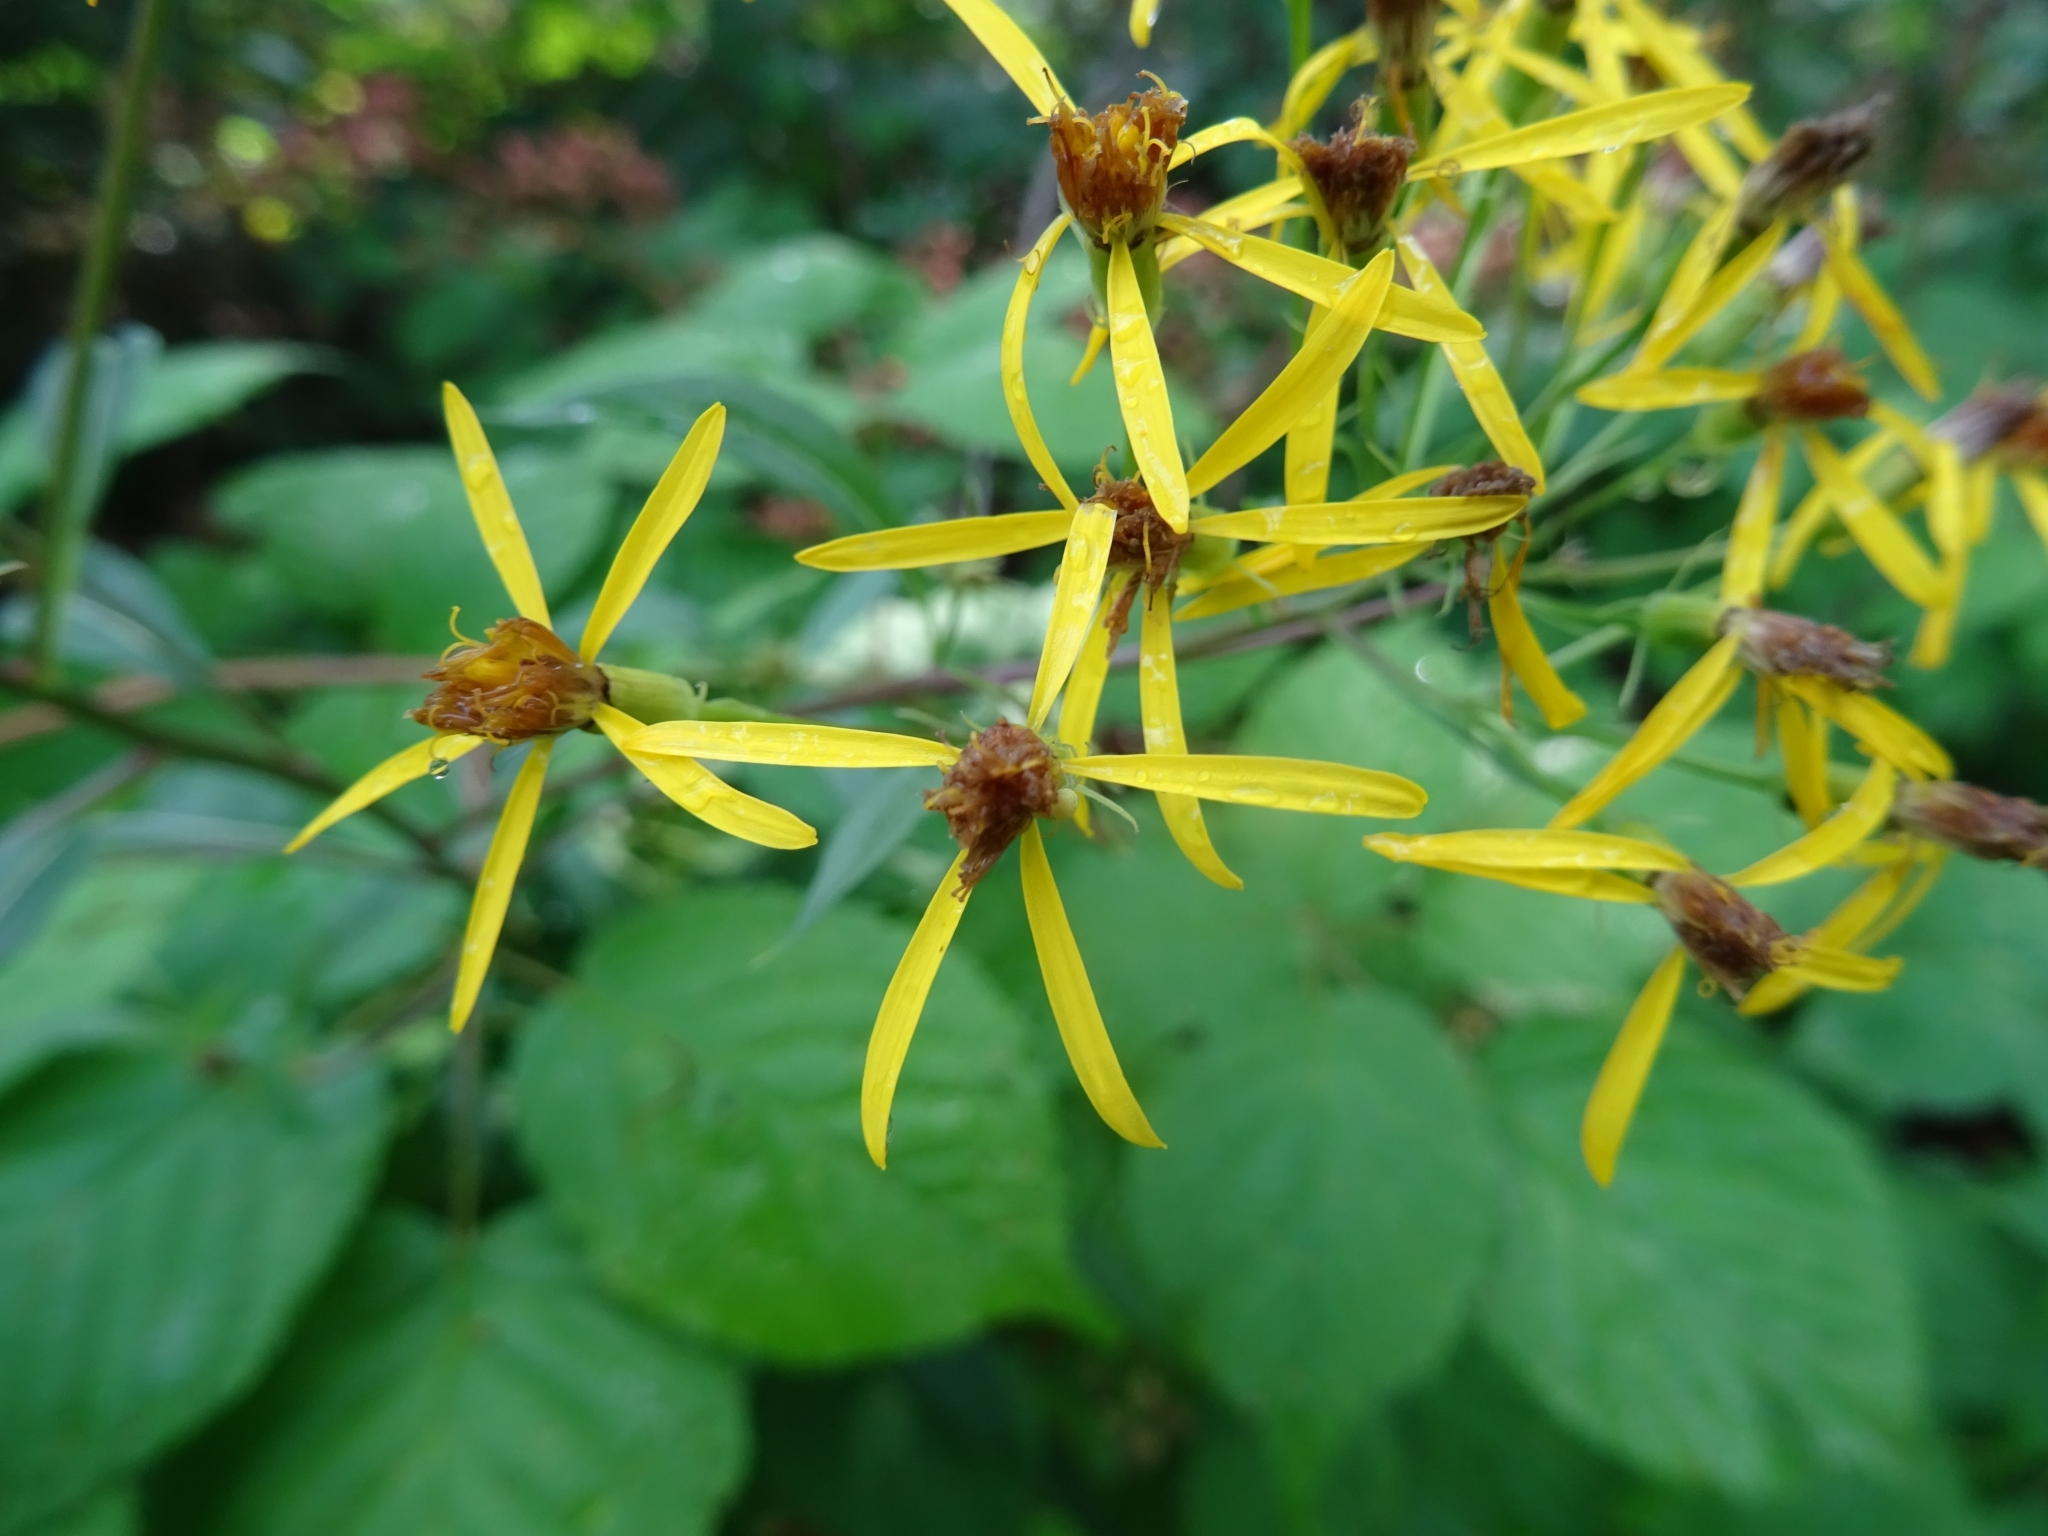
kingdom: Plantae
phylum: Tracheophyta
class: Magnoliopsida
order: Asterales
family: Asteraceae
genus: Senecio
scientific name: Senecio ovatus
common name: Wood ragwort
